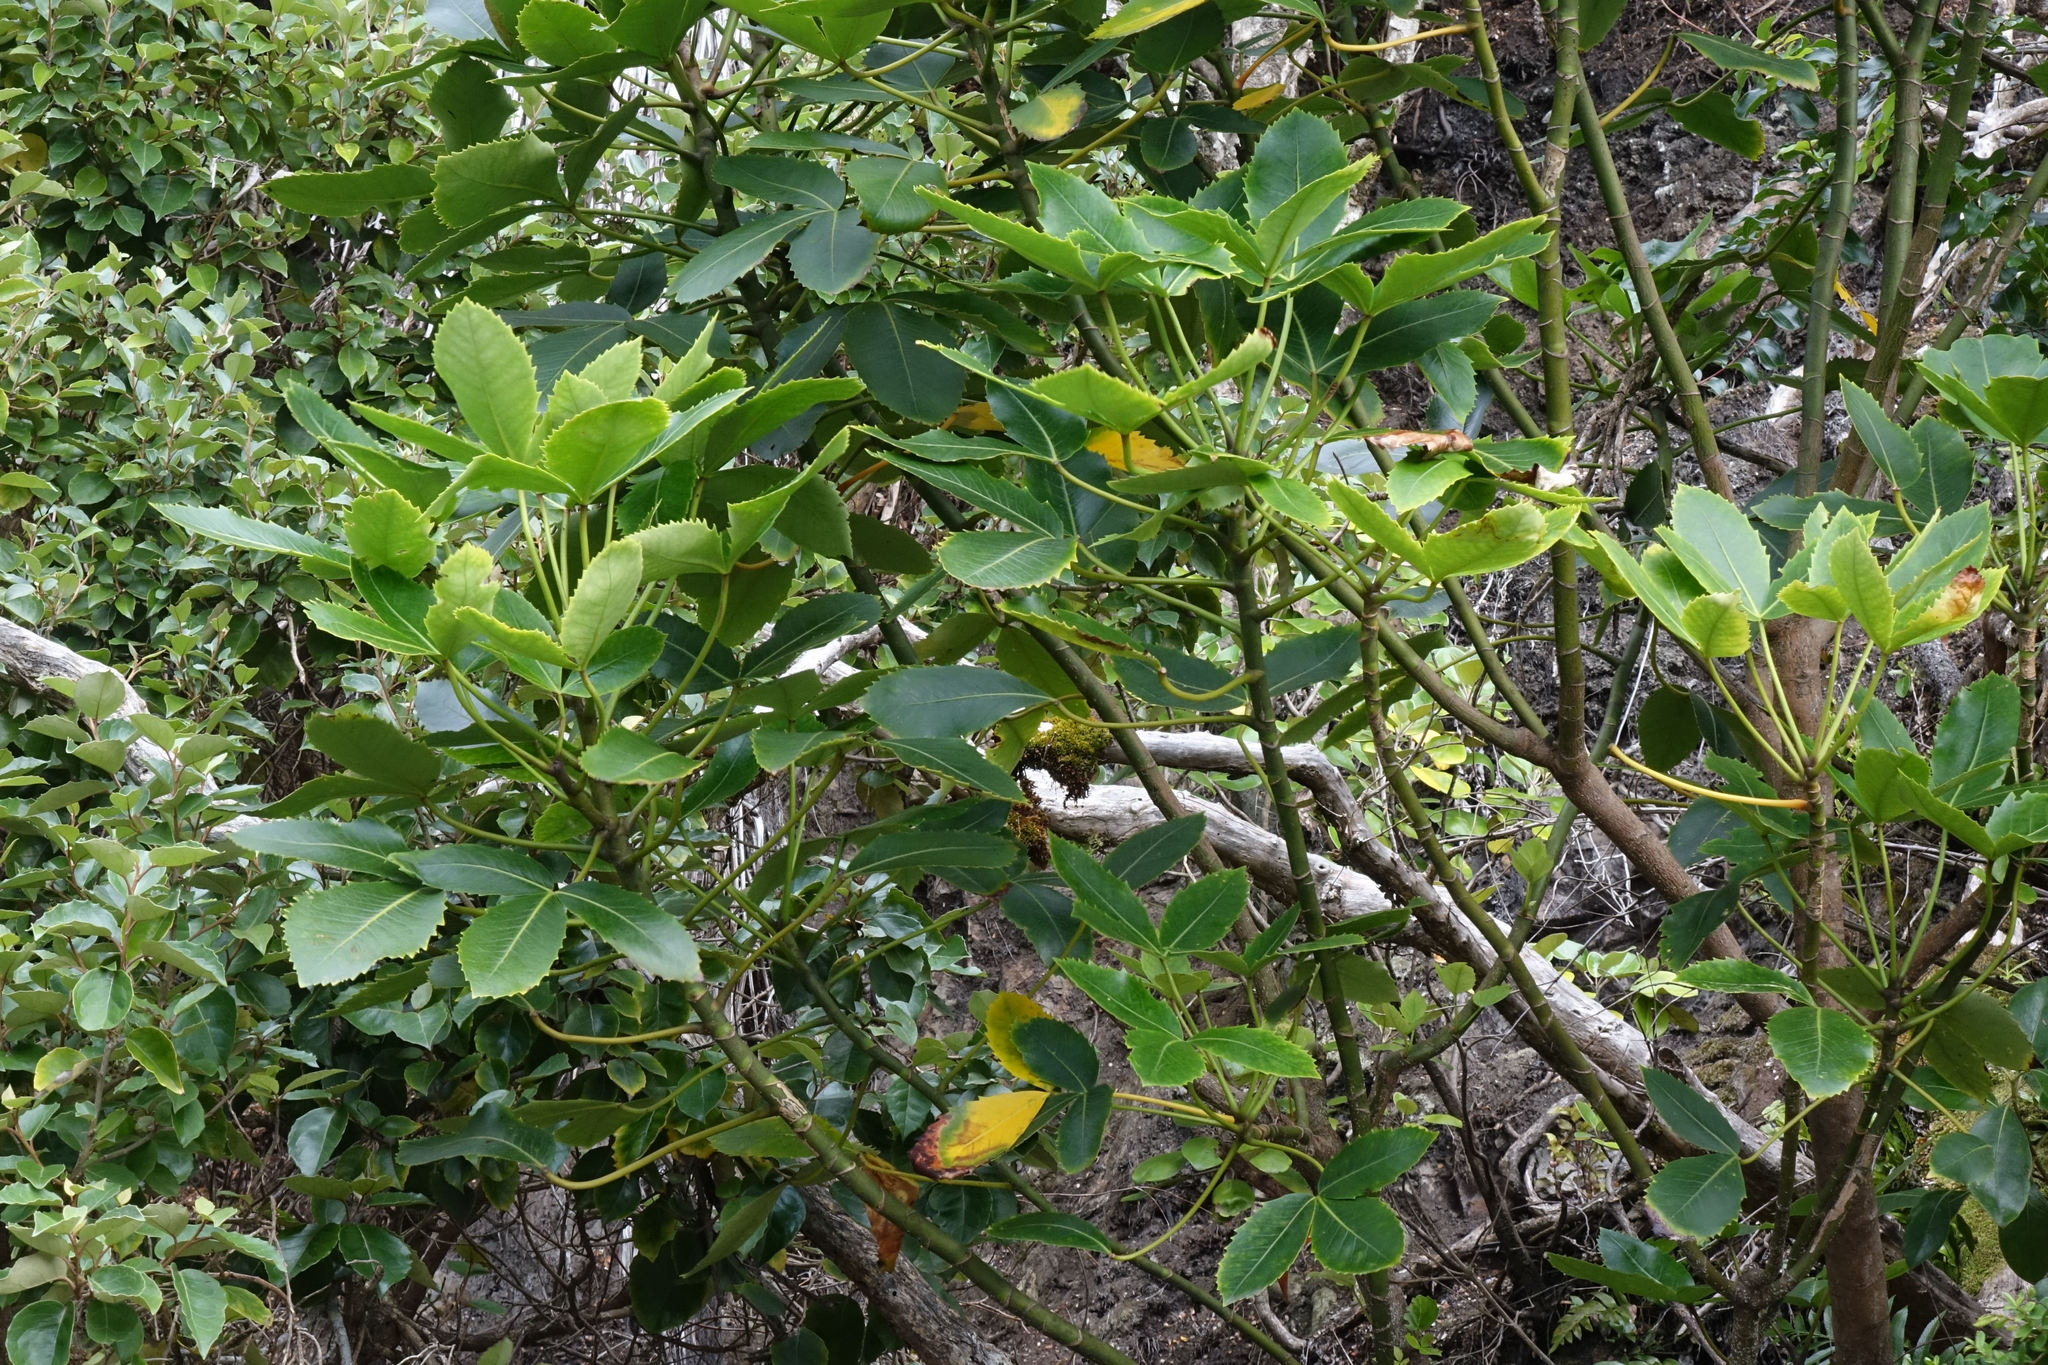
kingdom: Plantae
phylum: Tracheophyta
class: Magnoliopsida
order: Apiales
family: Araliaceae
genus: Neopanax
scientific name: Neopanax colensoi
